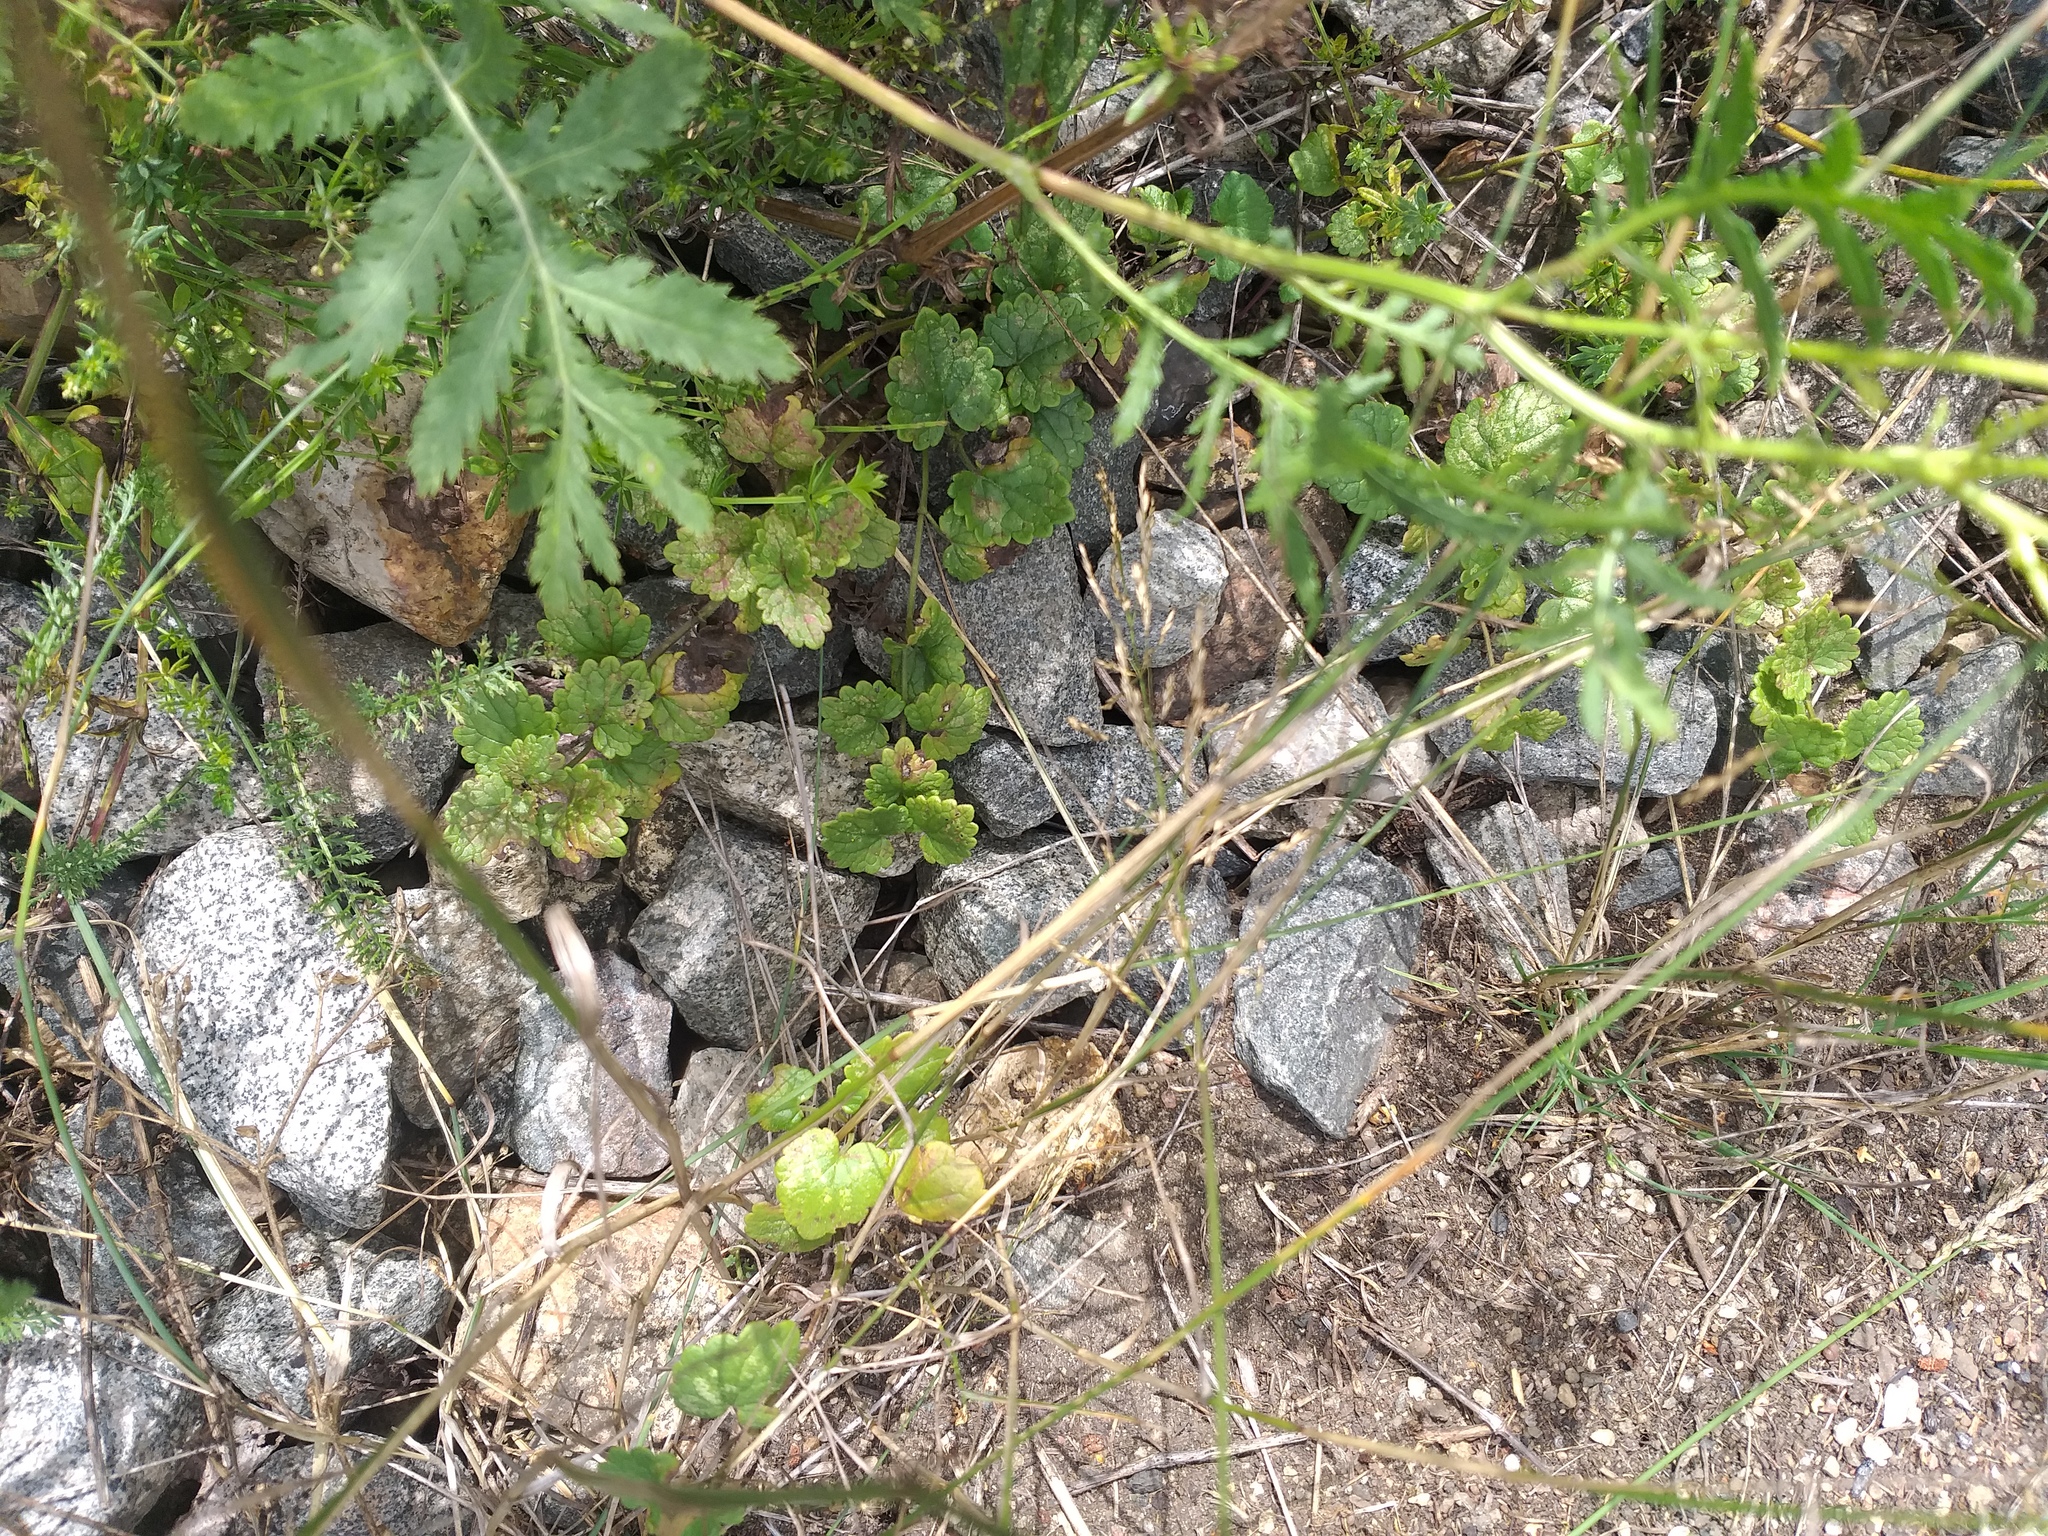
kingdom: Plantae
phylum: Tracheophyta
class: Magnoliopsida
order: Lamiales
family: Lamiaceae
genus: Glechoma
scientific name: Glechoma hederacea
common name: Ground ivy
